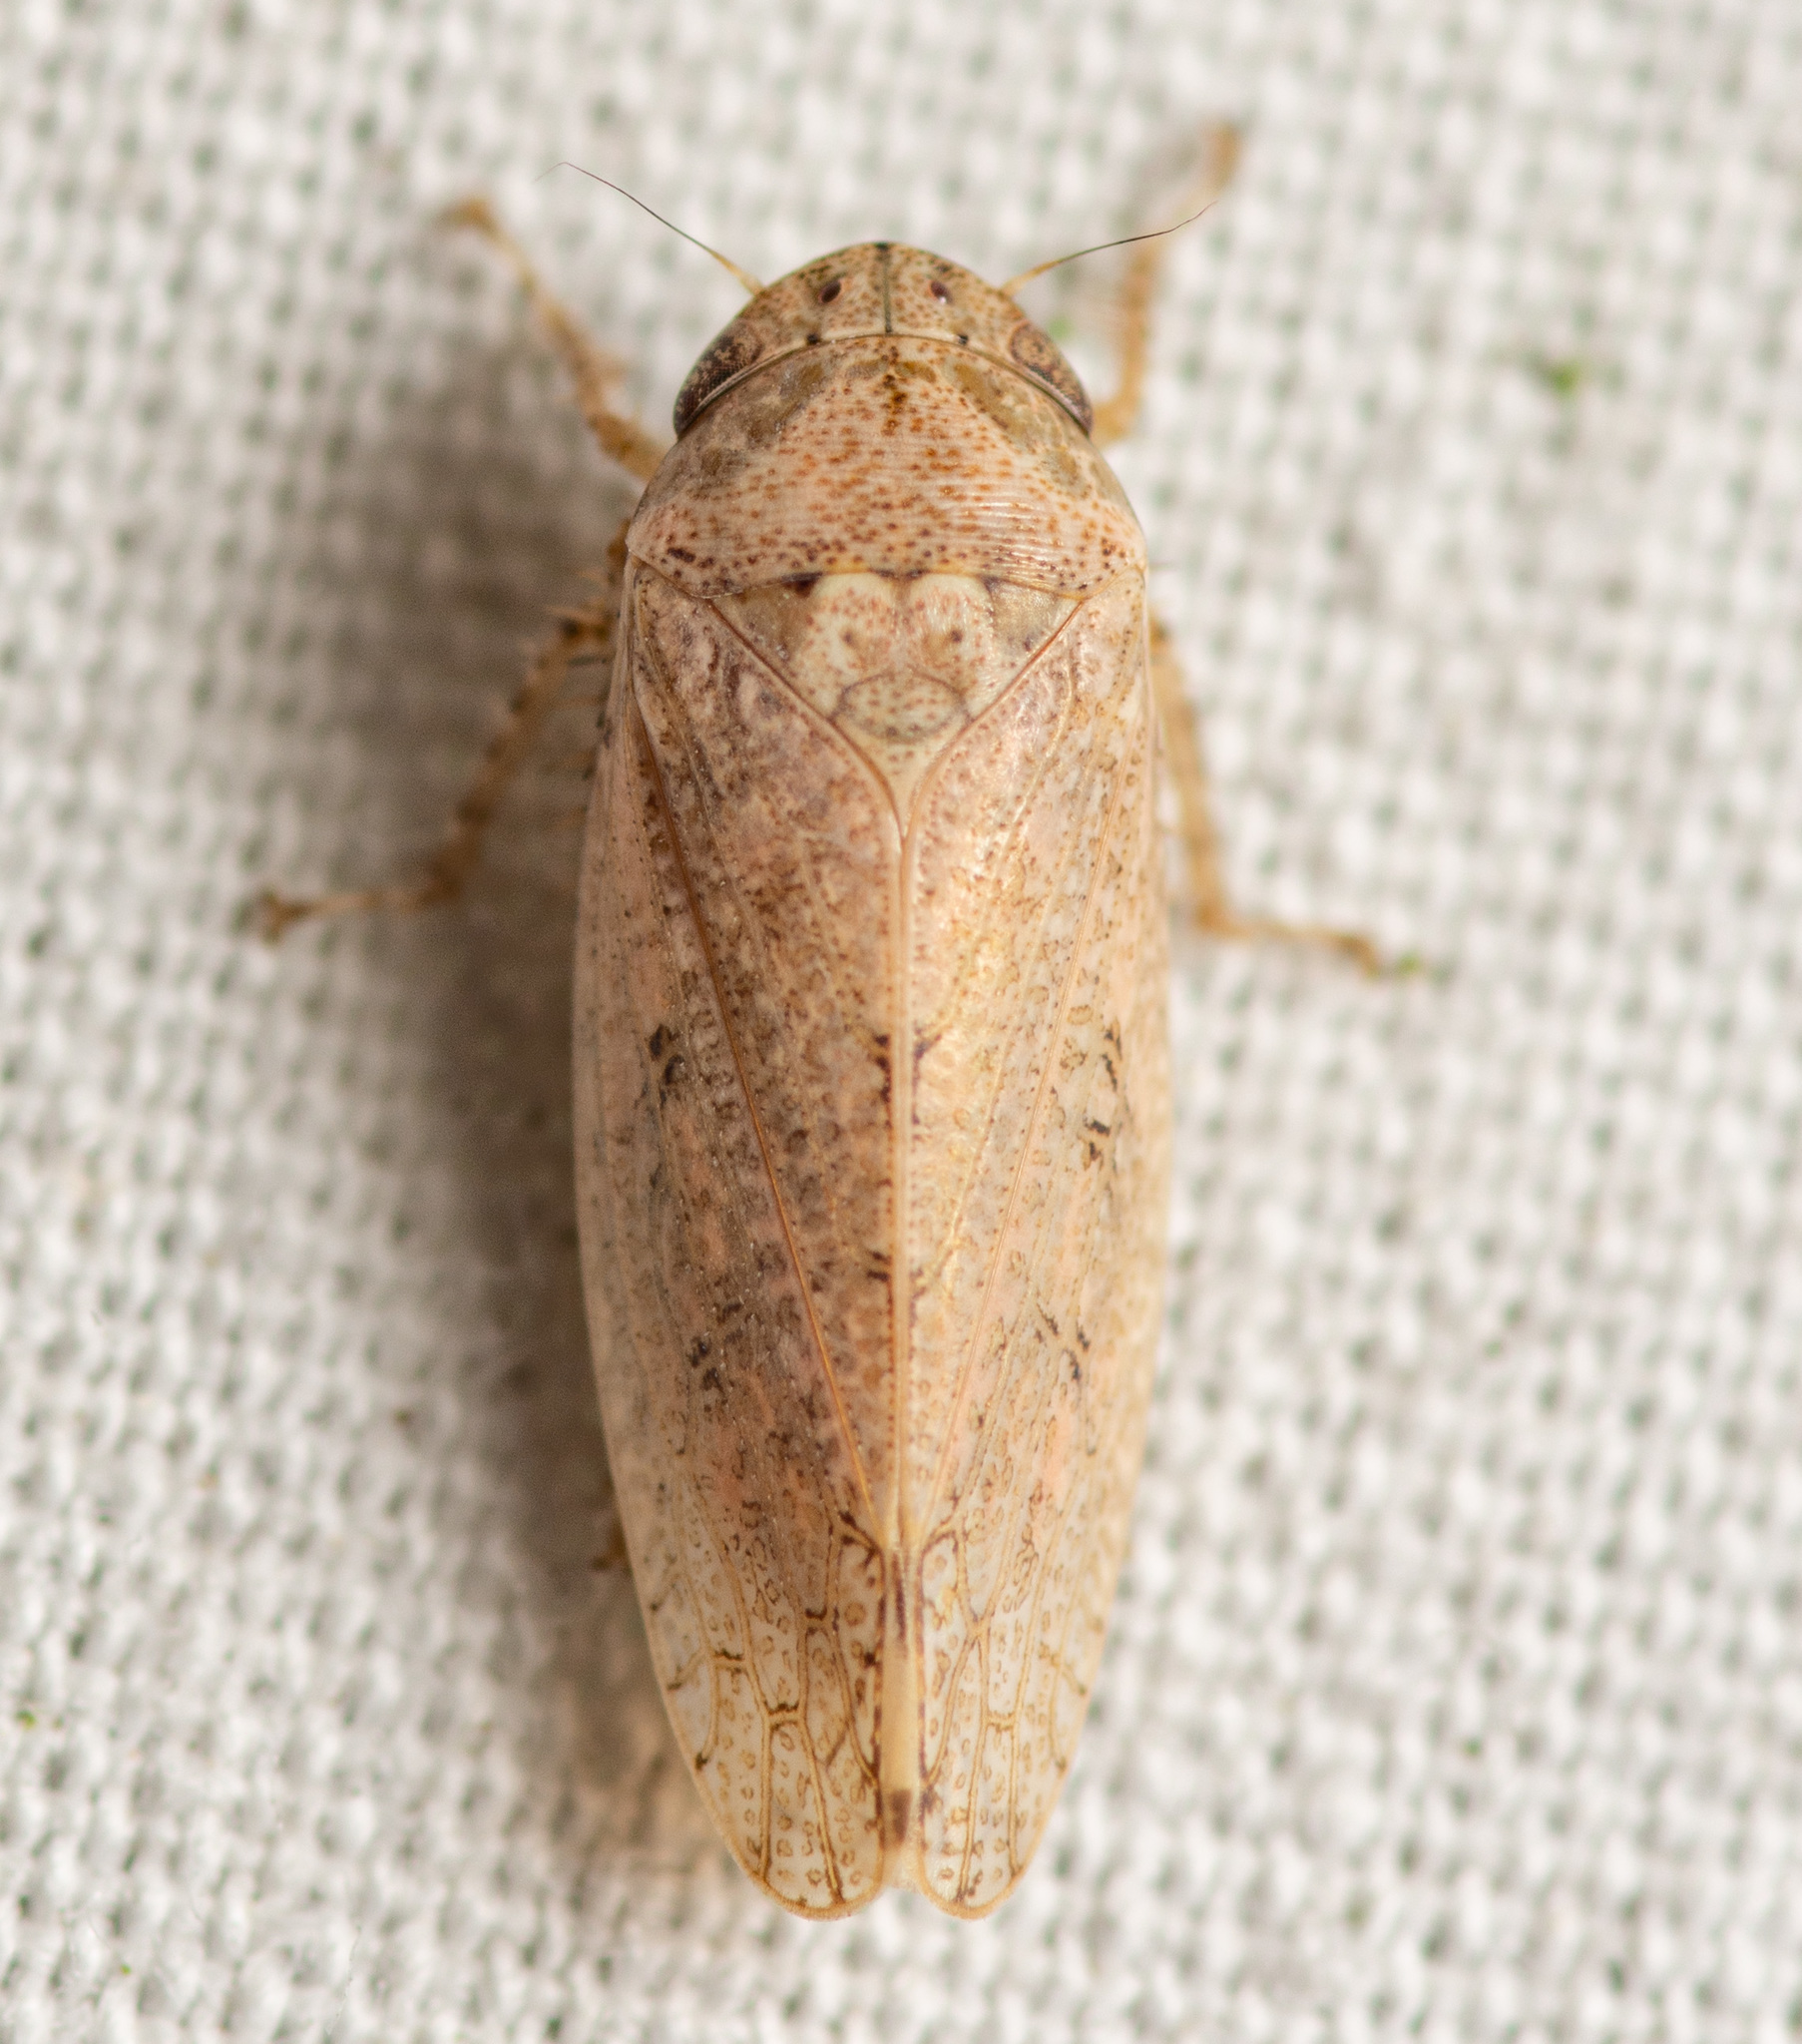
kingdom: Animalia
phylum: Arthropoda
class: Insecta
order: Hemiptera
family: Cicadellidae
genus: Curtara
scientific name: Curtara insularis
